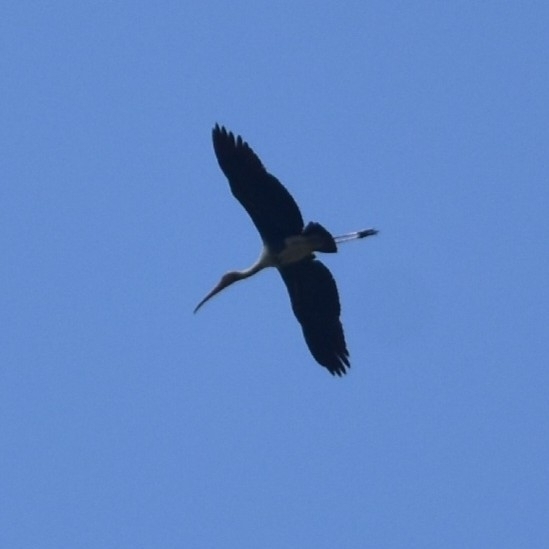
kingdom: Animalia
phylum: Chordata
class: Aves
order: Ciconiiformes
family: Ciconiidae
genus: Mycteria
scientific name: Mycteria leucocephala
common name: Painted stork
